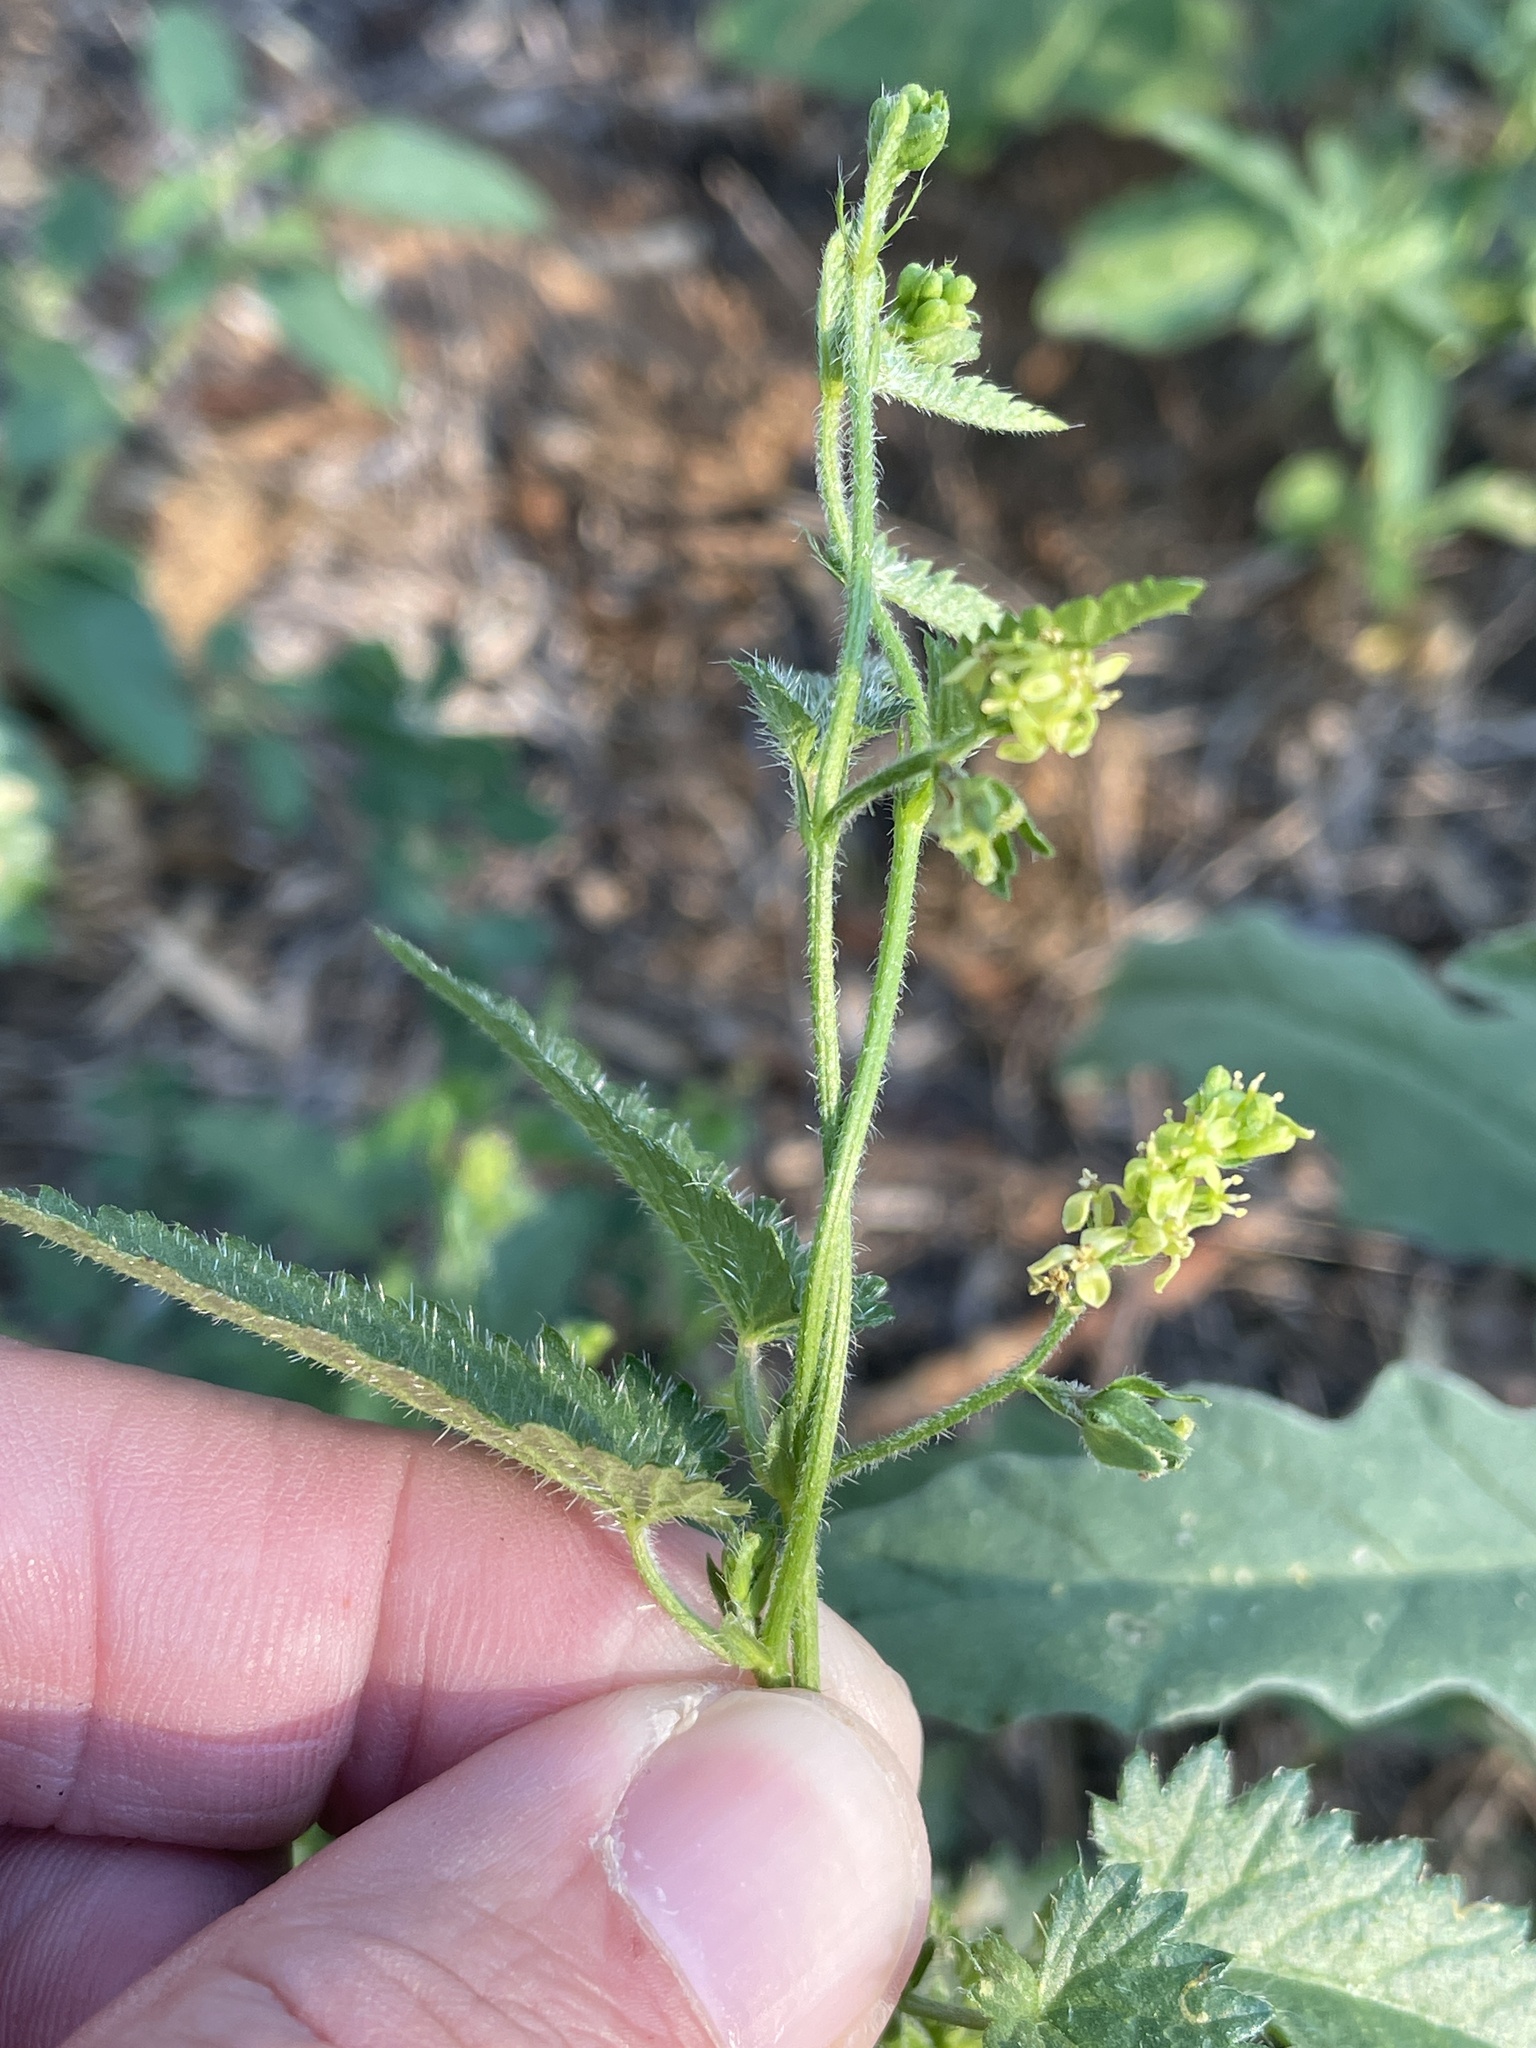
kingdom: Plantae
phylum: Tracheophyta
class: Magnoliopsida
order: Malpighiales
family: Euphorbiaceae
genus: Tragia
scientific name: Tragia urticifolia
